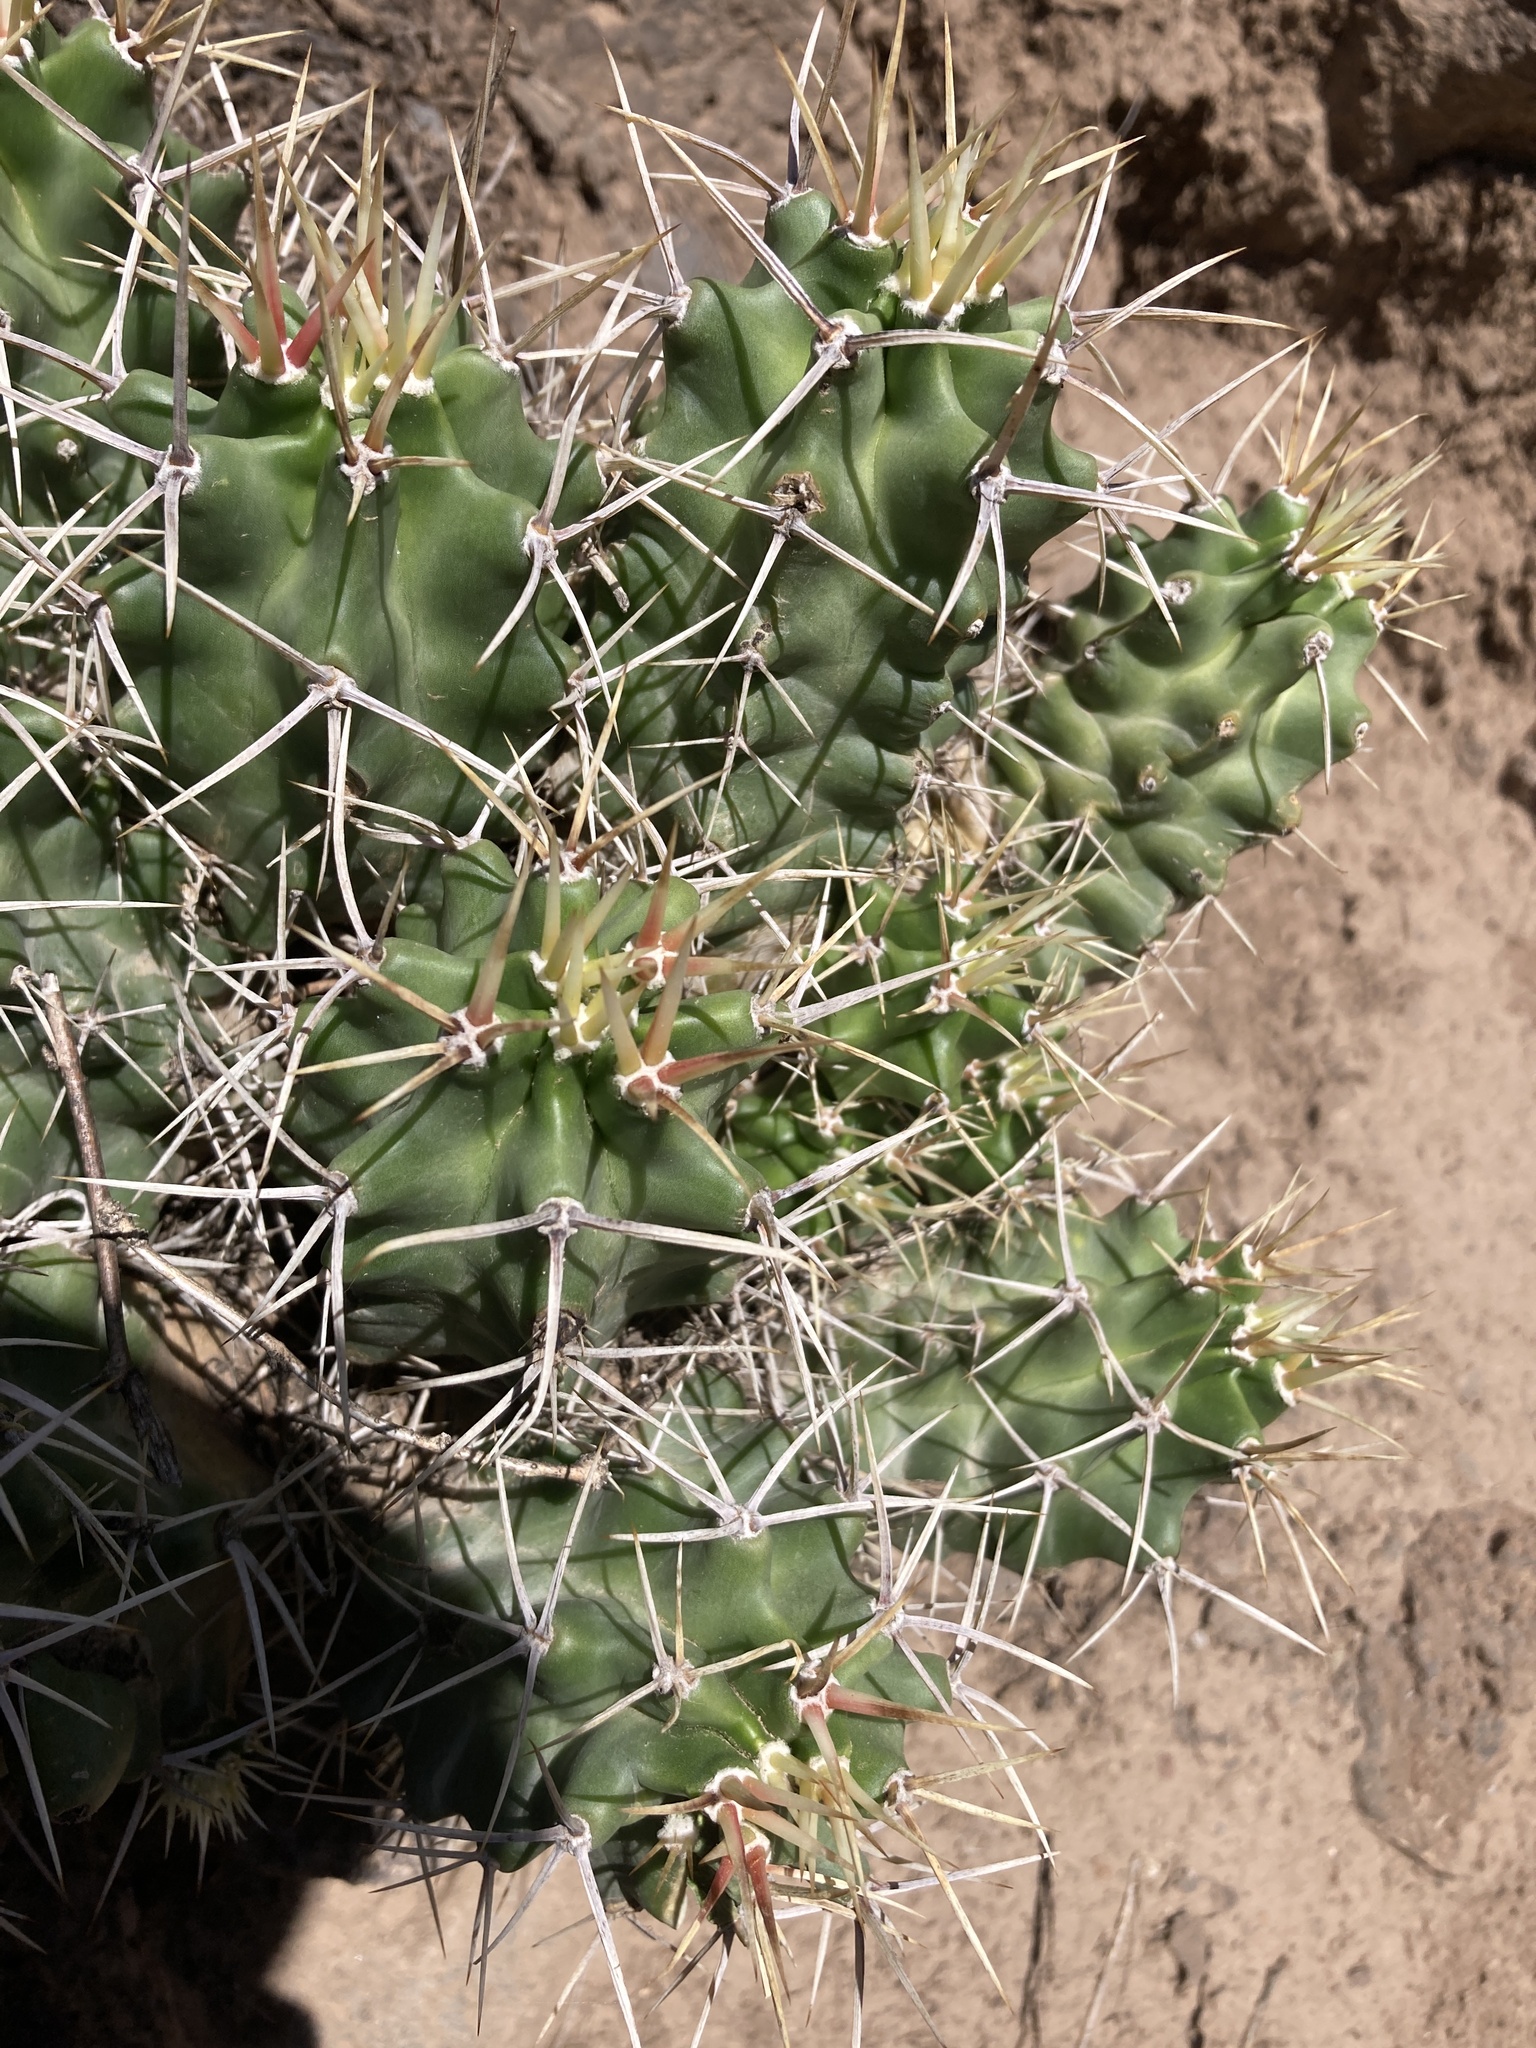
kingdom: Plantae
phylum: Tracheophyta
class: Magnoliopsida
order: Caryophyllales
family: Cactaceae
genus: Echinocereus
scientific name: Echinocereus triglochidiatus
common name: Claretcup hedgehog
